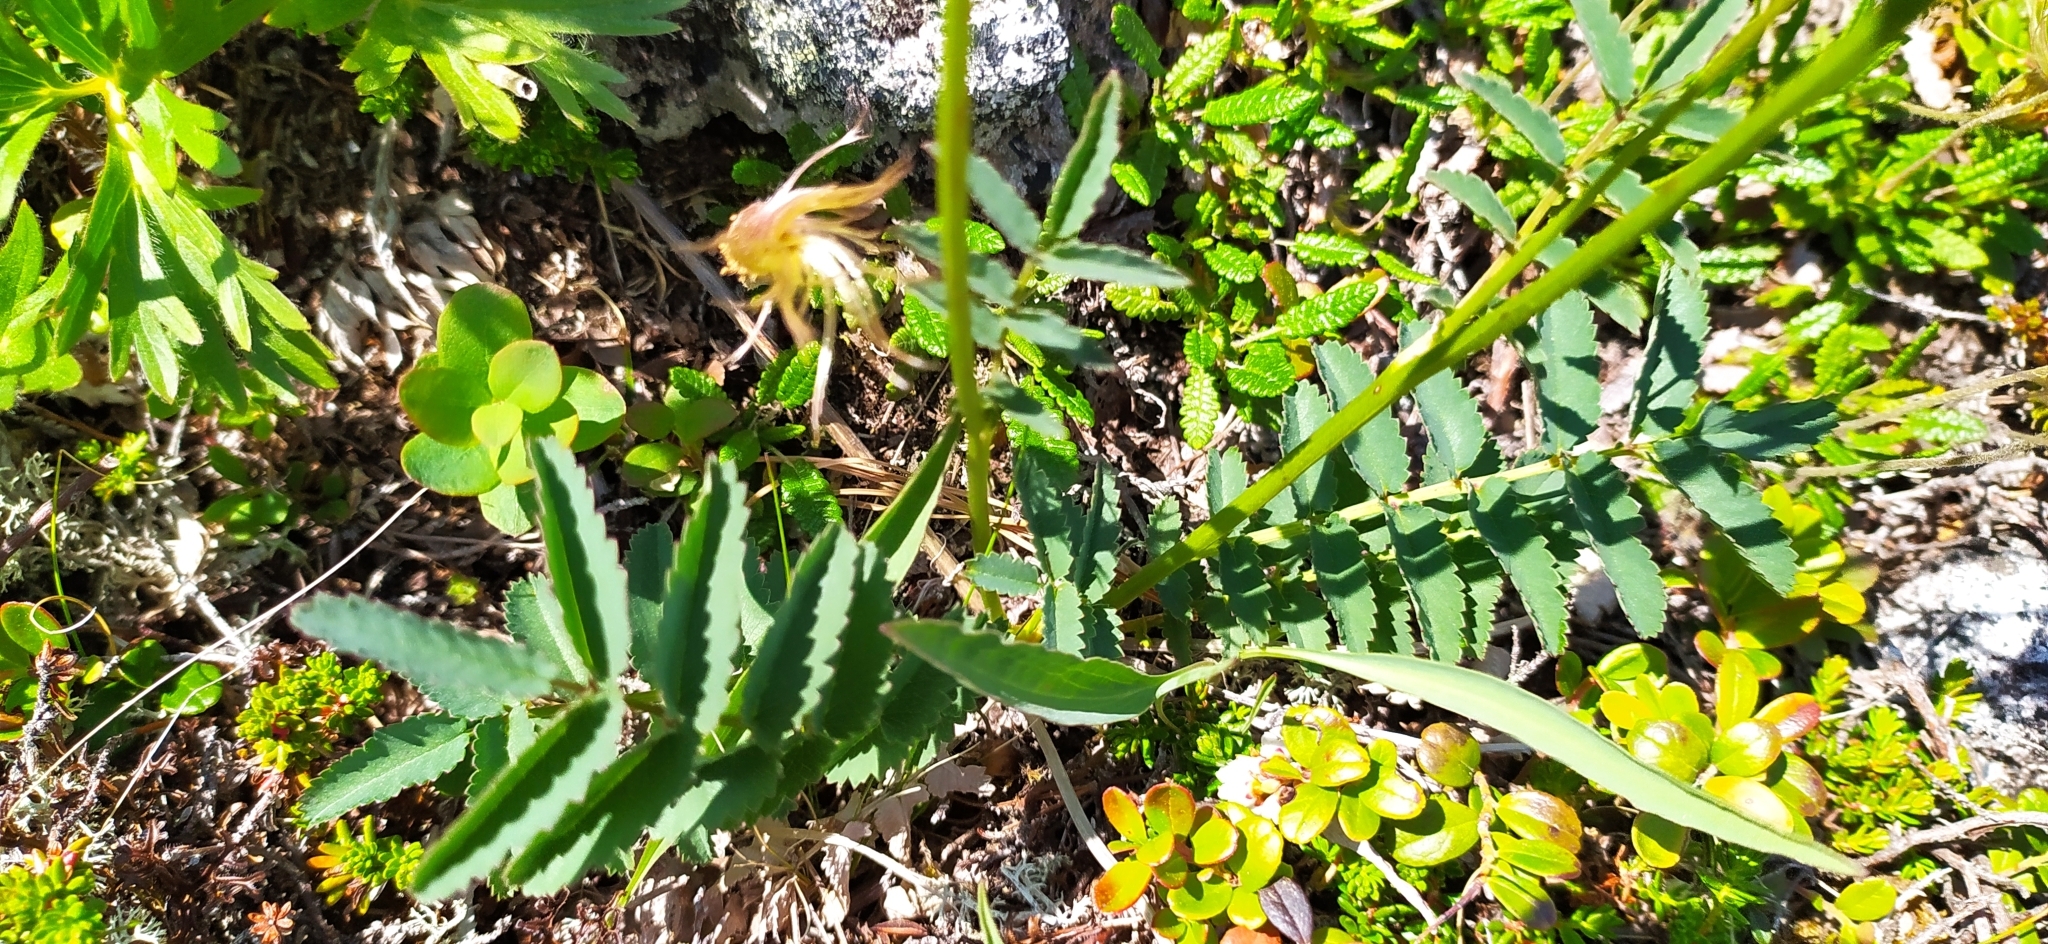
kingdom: Plantae
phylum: Tracheophyta
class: Magnoliopsida
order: Rosales
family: Rosaceae
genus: Sanguisorba
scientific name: Sanguisorba officinalis
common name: Great burnet
